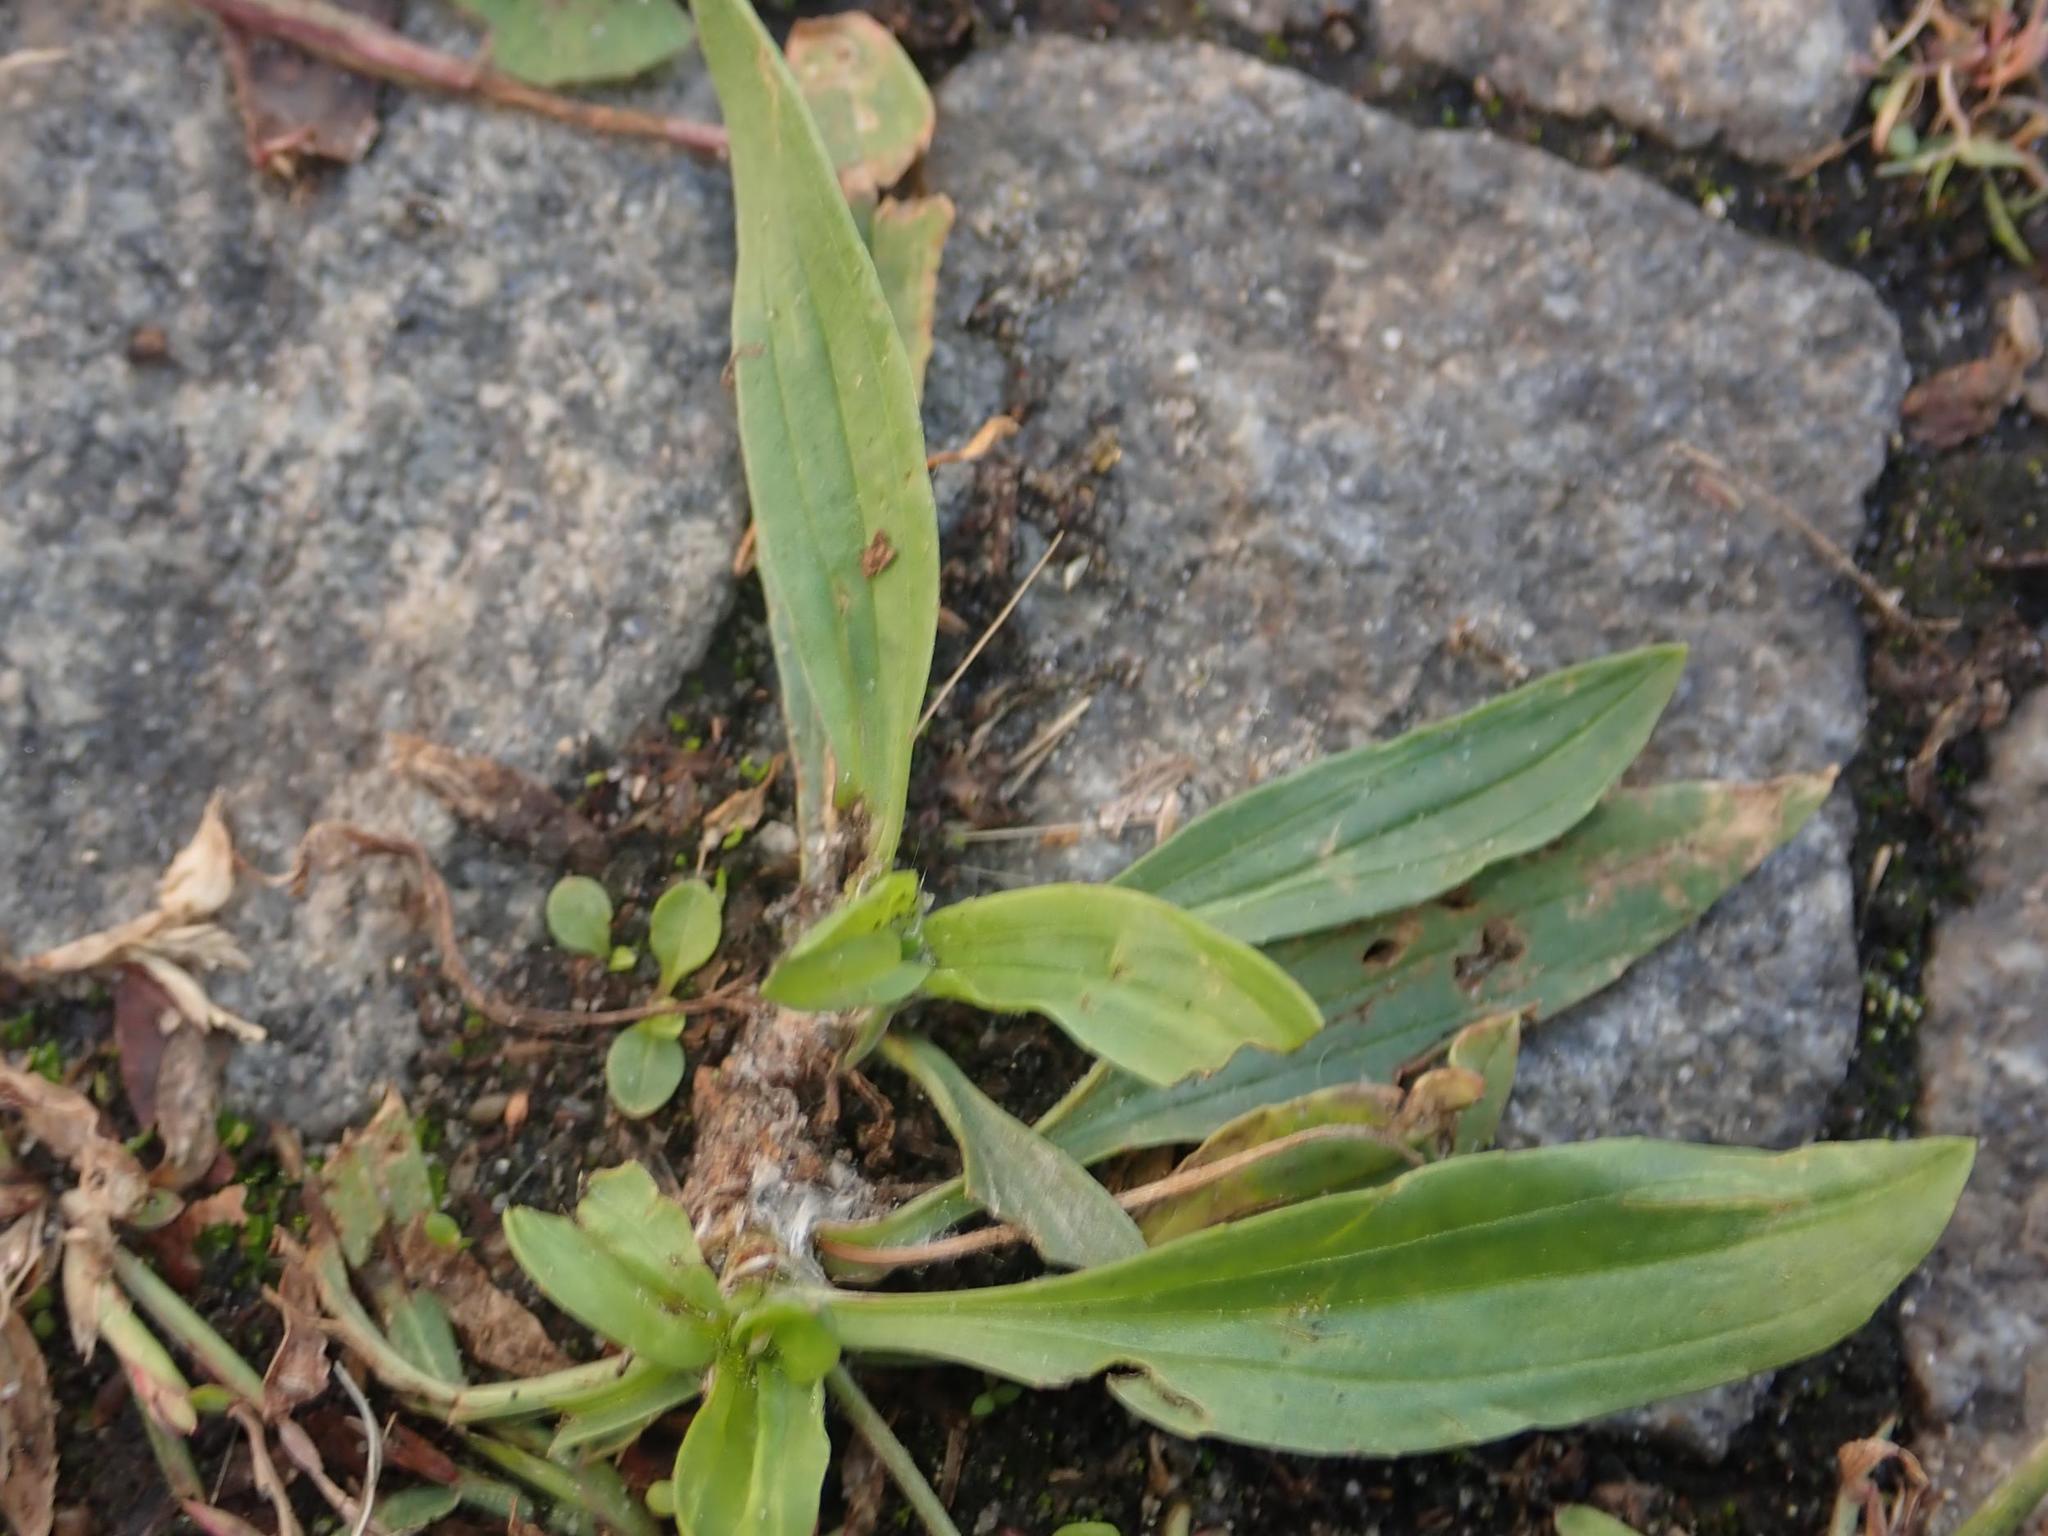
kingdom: Plantae
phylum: Tracheophyta
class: Magnoliopsida
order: Lamiales
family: Plantaginaceae
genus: Plantago
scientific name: Plantago lanceolata
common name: Ribwort plantain
